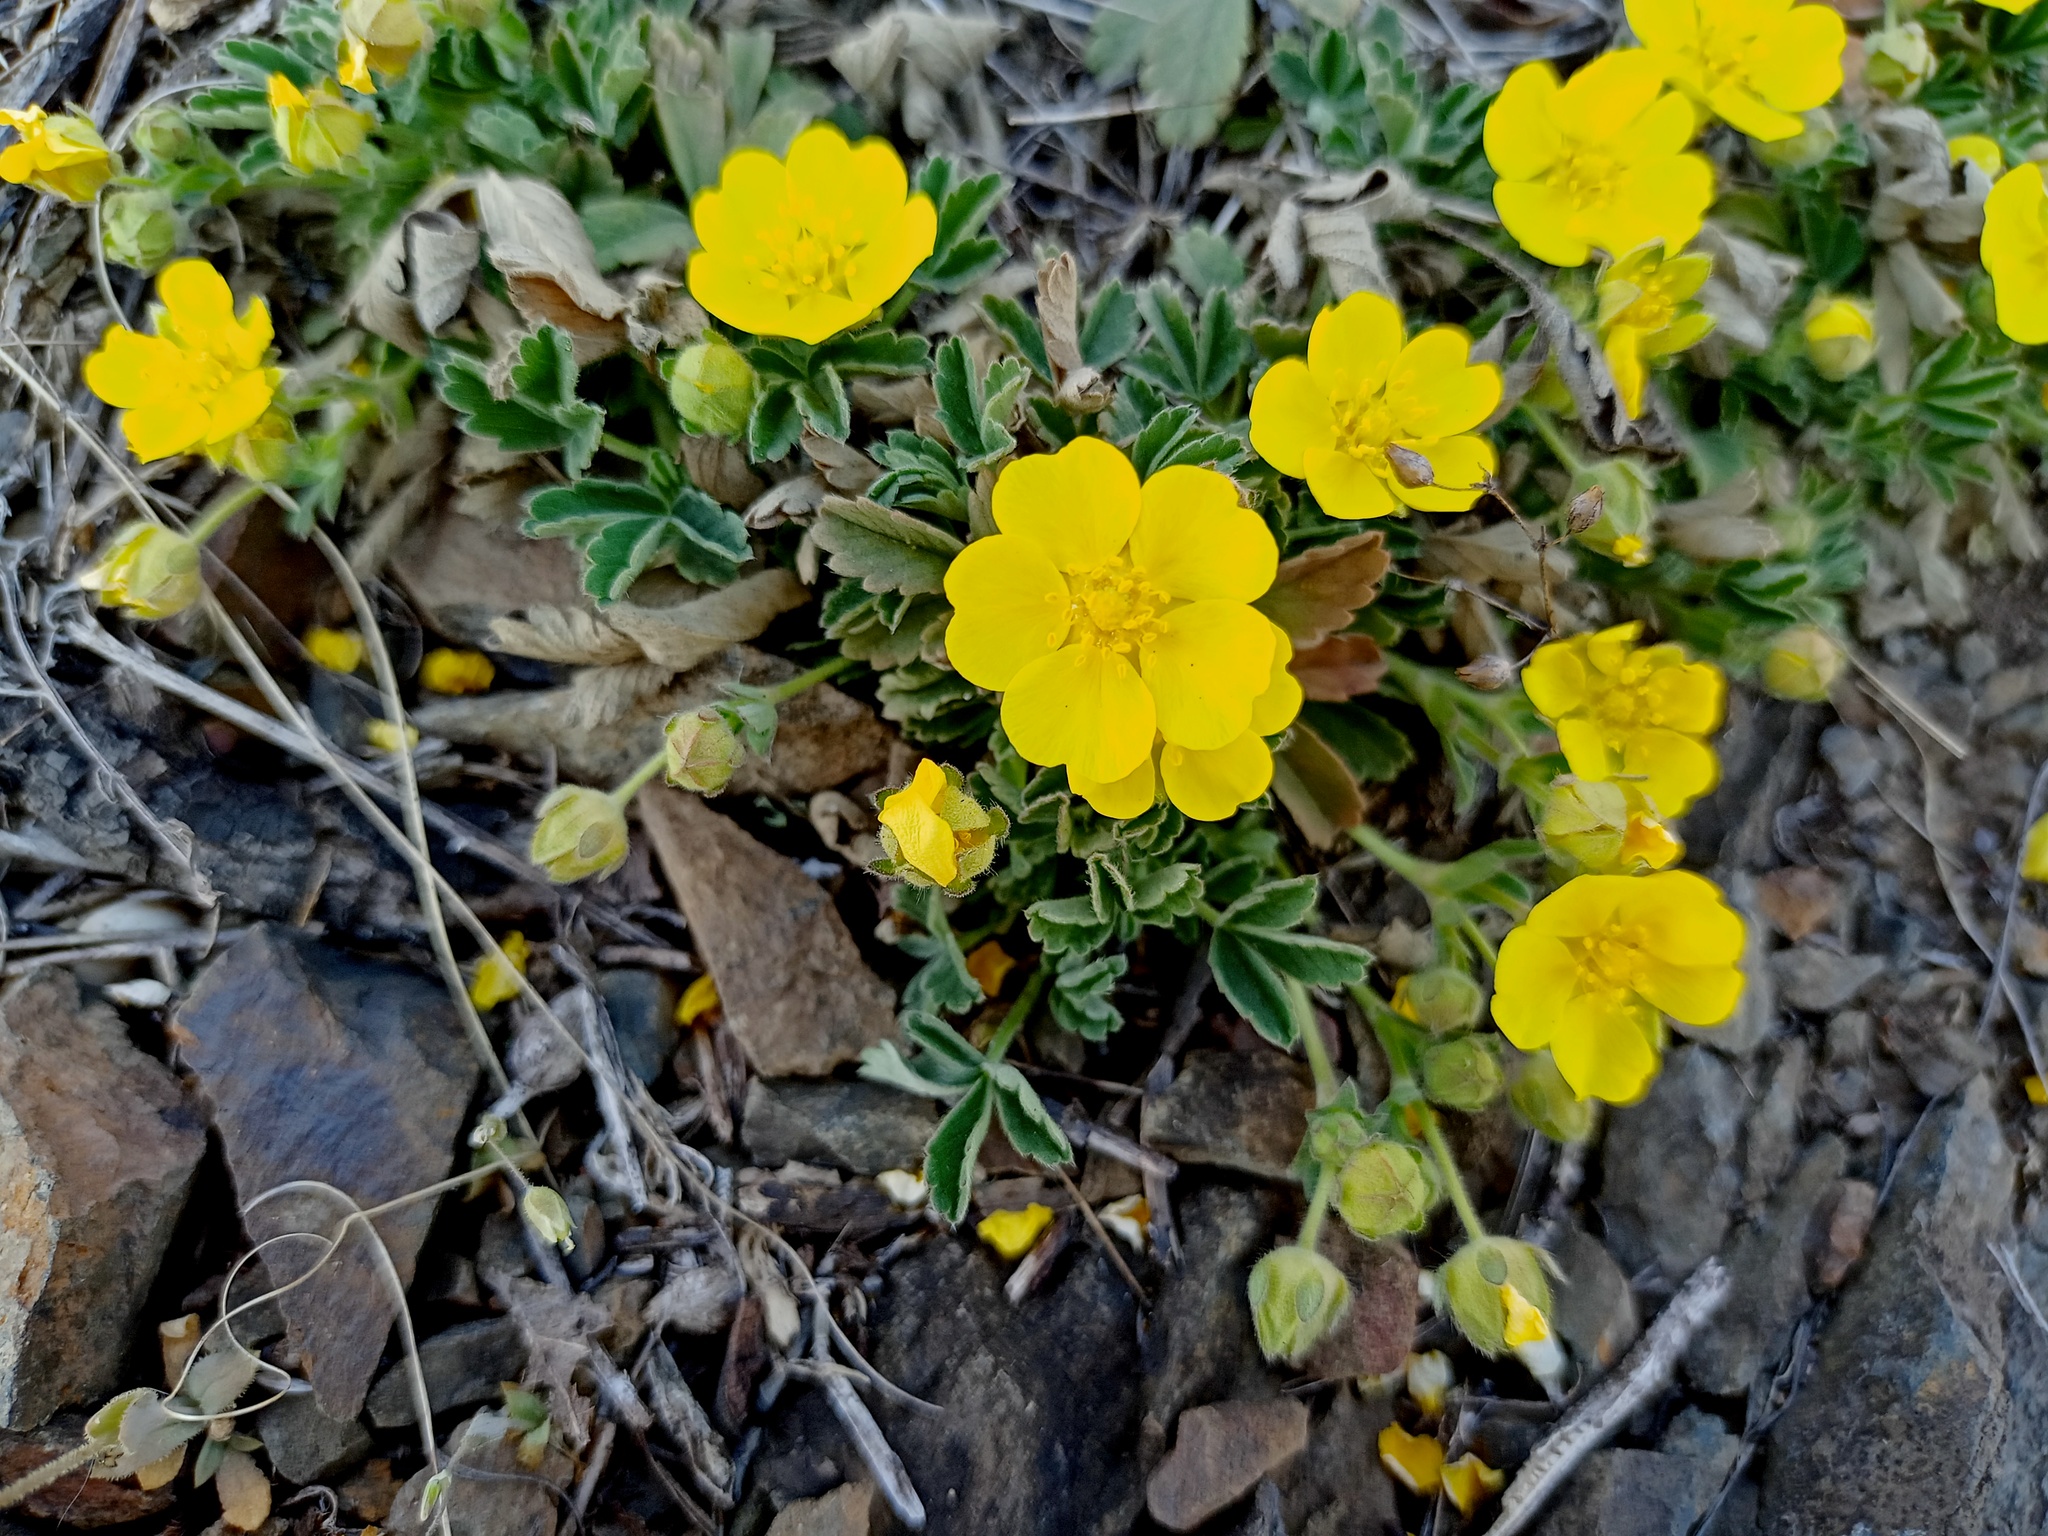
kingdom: Plantae
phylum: Tracheophyta
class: Magnoliopsida
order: Rosales
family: Rosaceae
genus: Potentilla
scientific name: Potentilla incana
